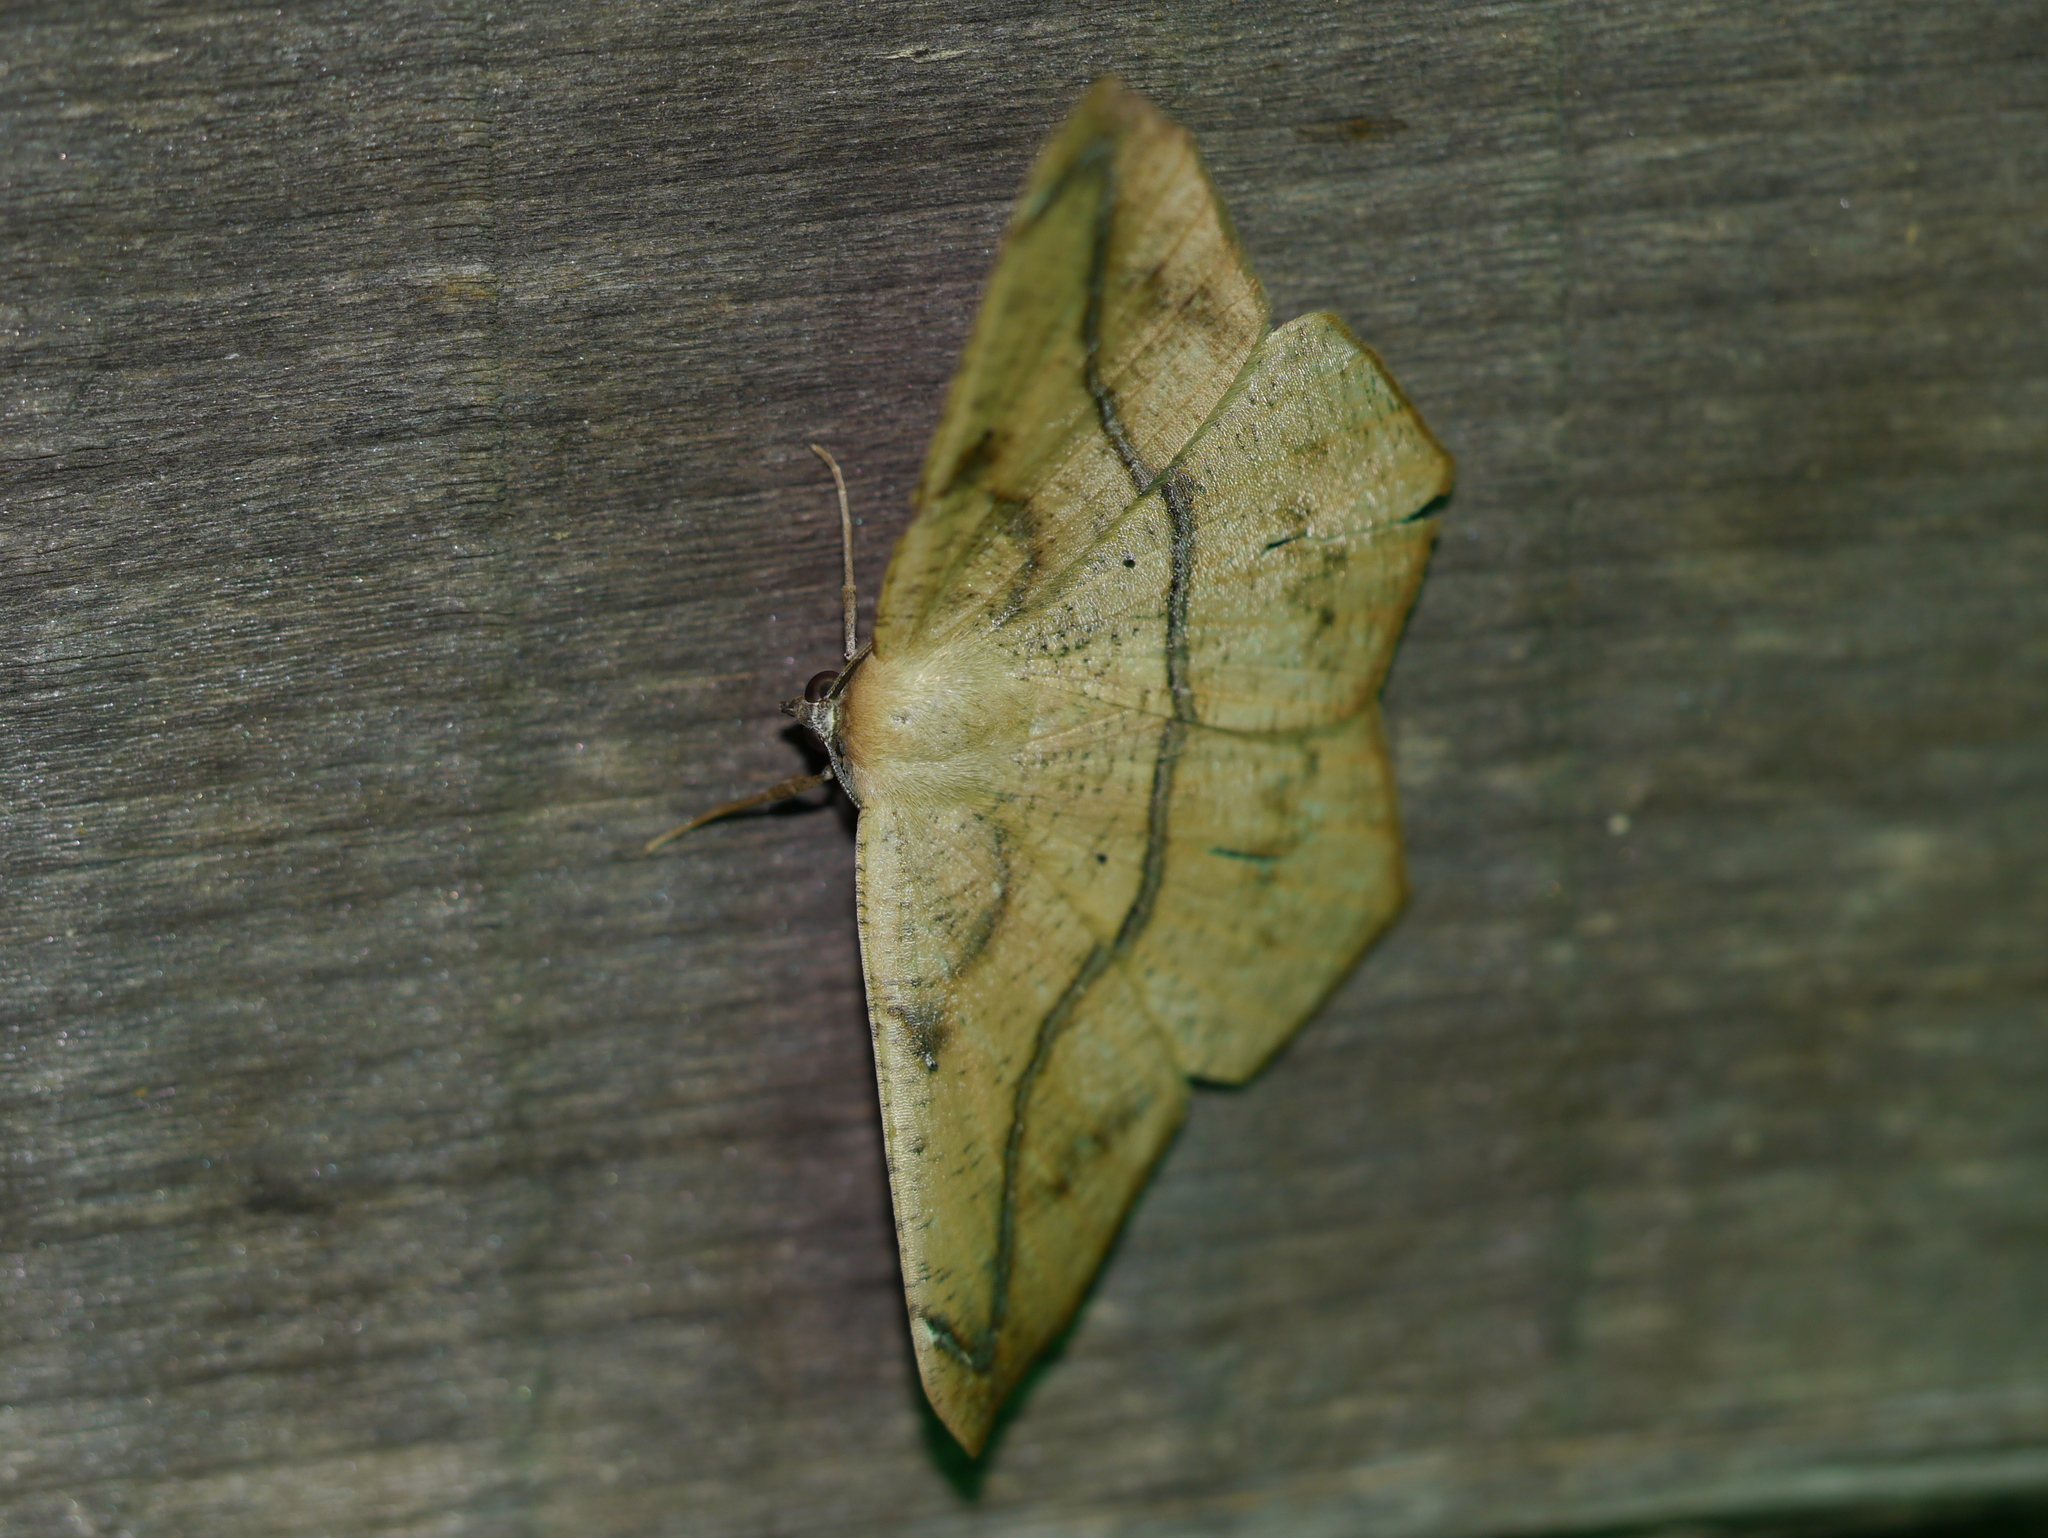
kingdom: Animalia
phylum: Arthropoda
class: Insecta
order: Lepidoptera
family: Geometridae
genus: Prochoerodes
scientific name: Prochoerodes lineola
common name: Large maple spanworm
